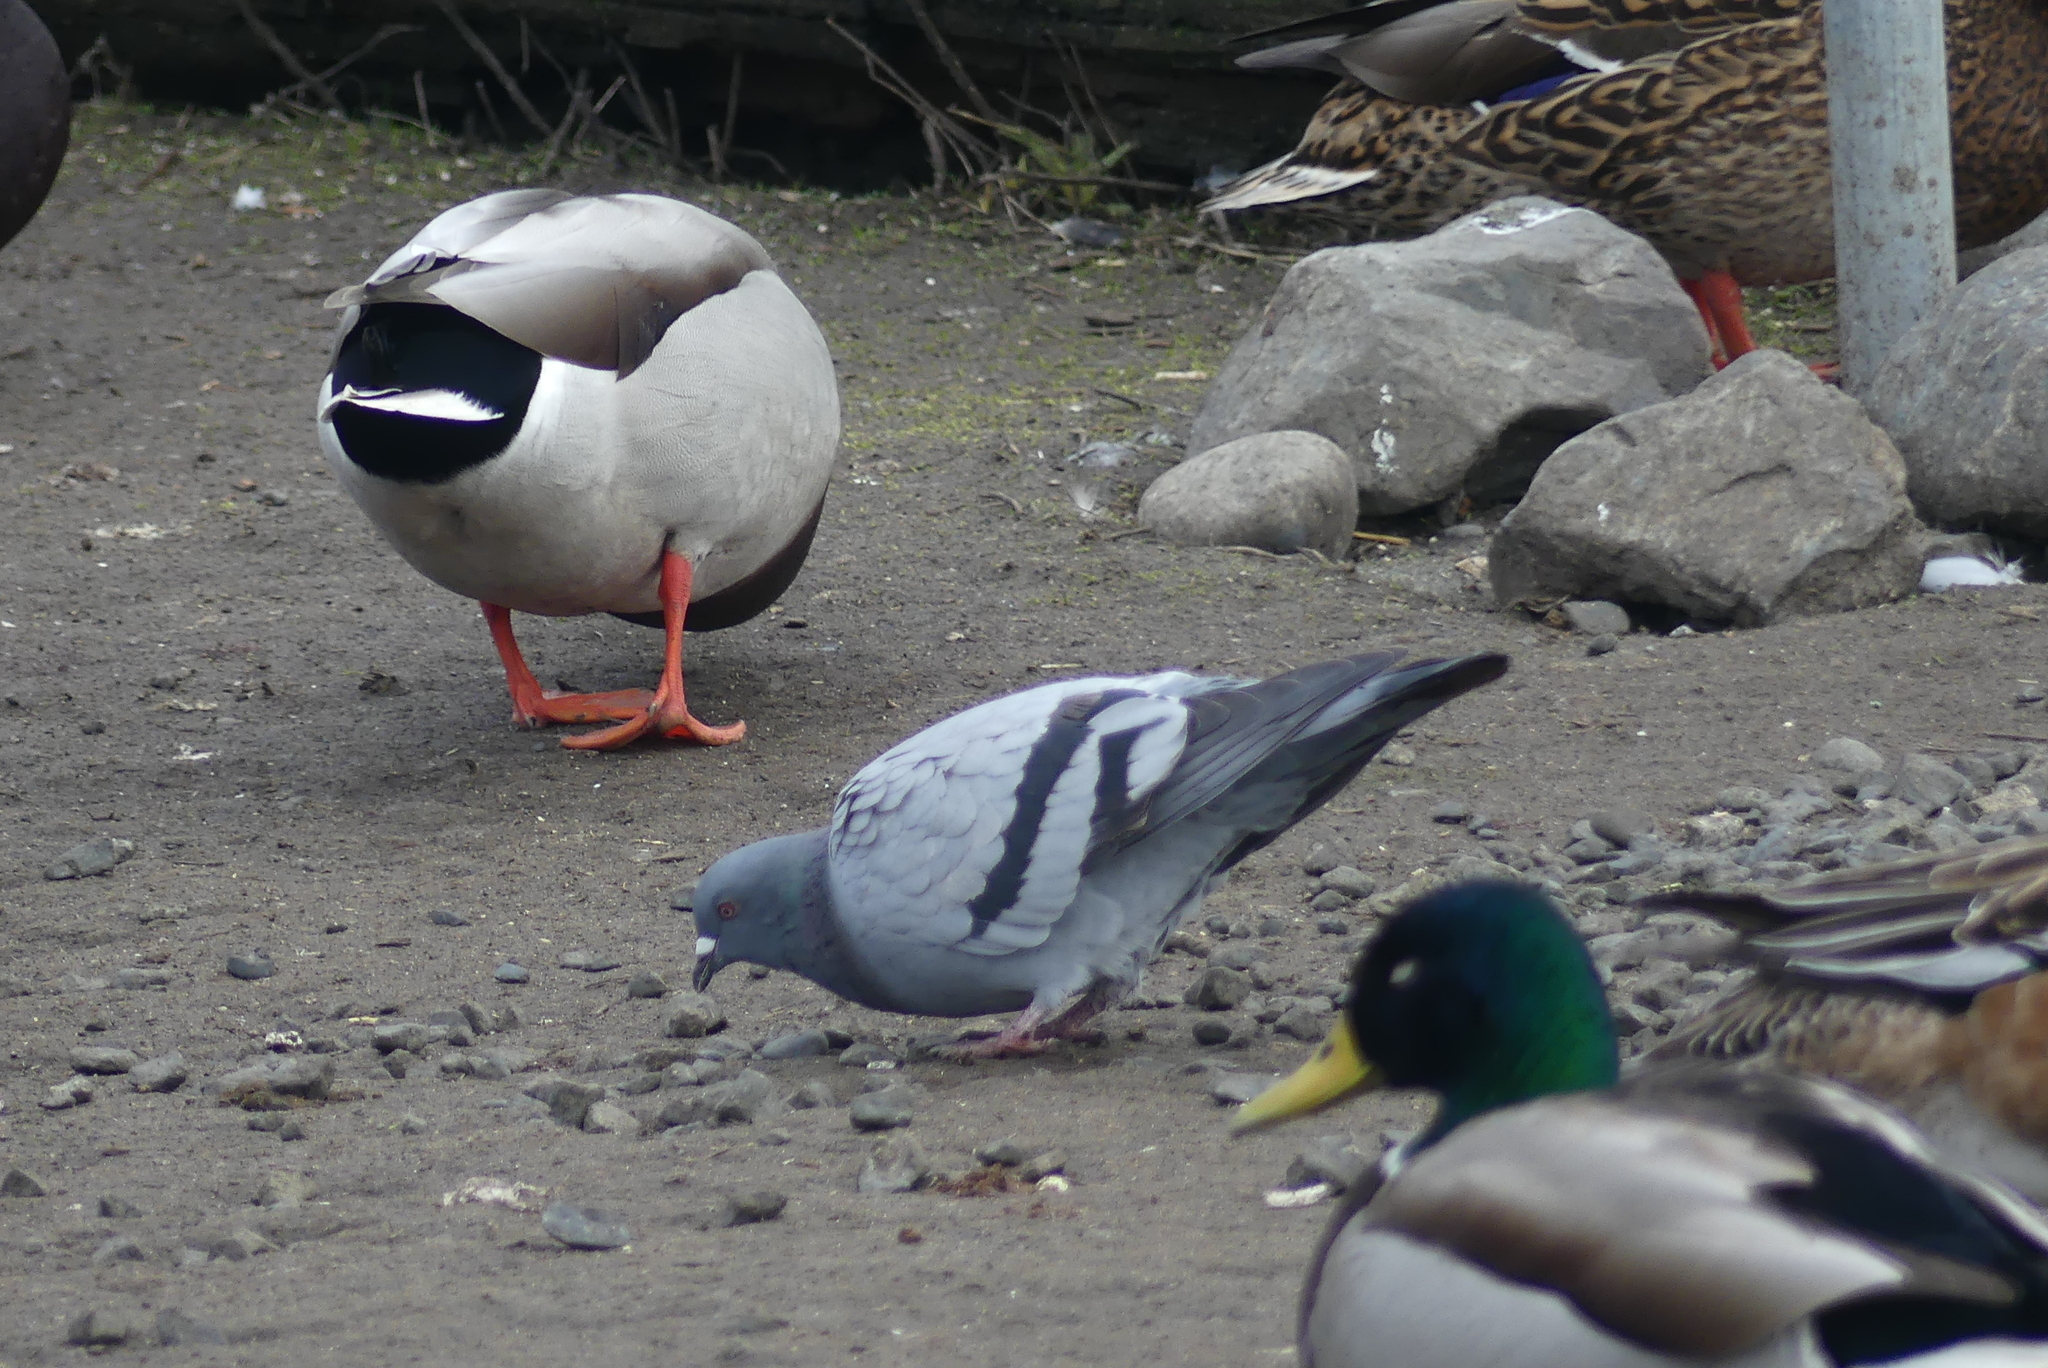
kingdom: Animalia
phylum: Chordata
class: Aves
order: Columbiformes
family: Columbidae
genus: Columba
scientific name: Columba livia
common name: Rock pigeon
